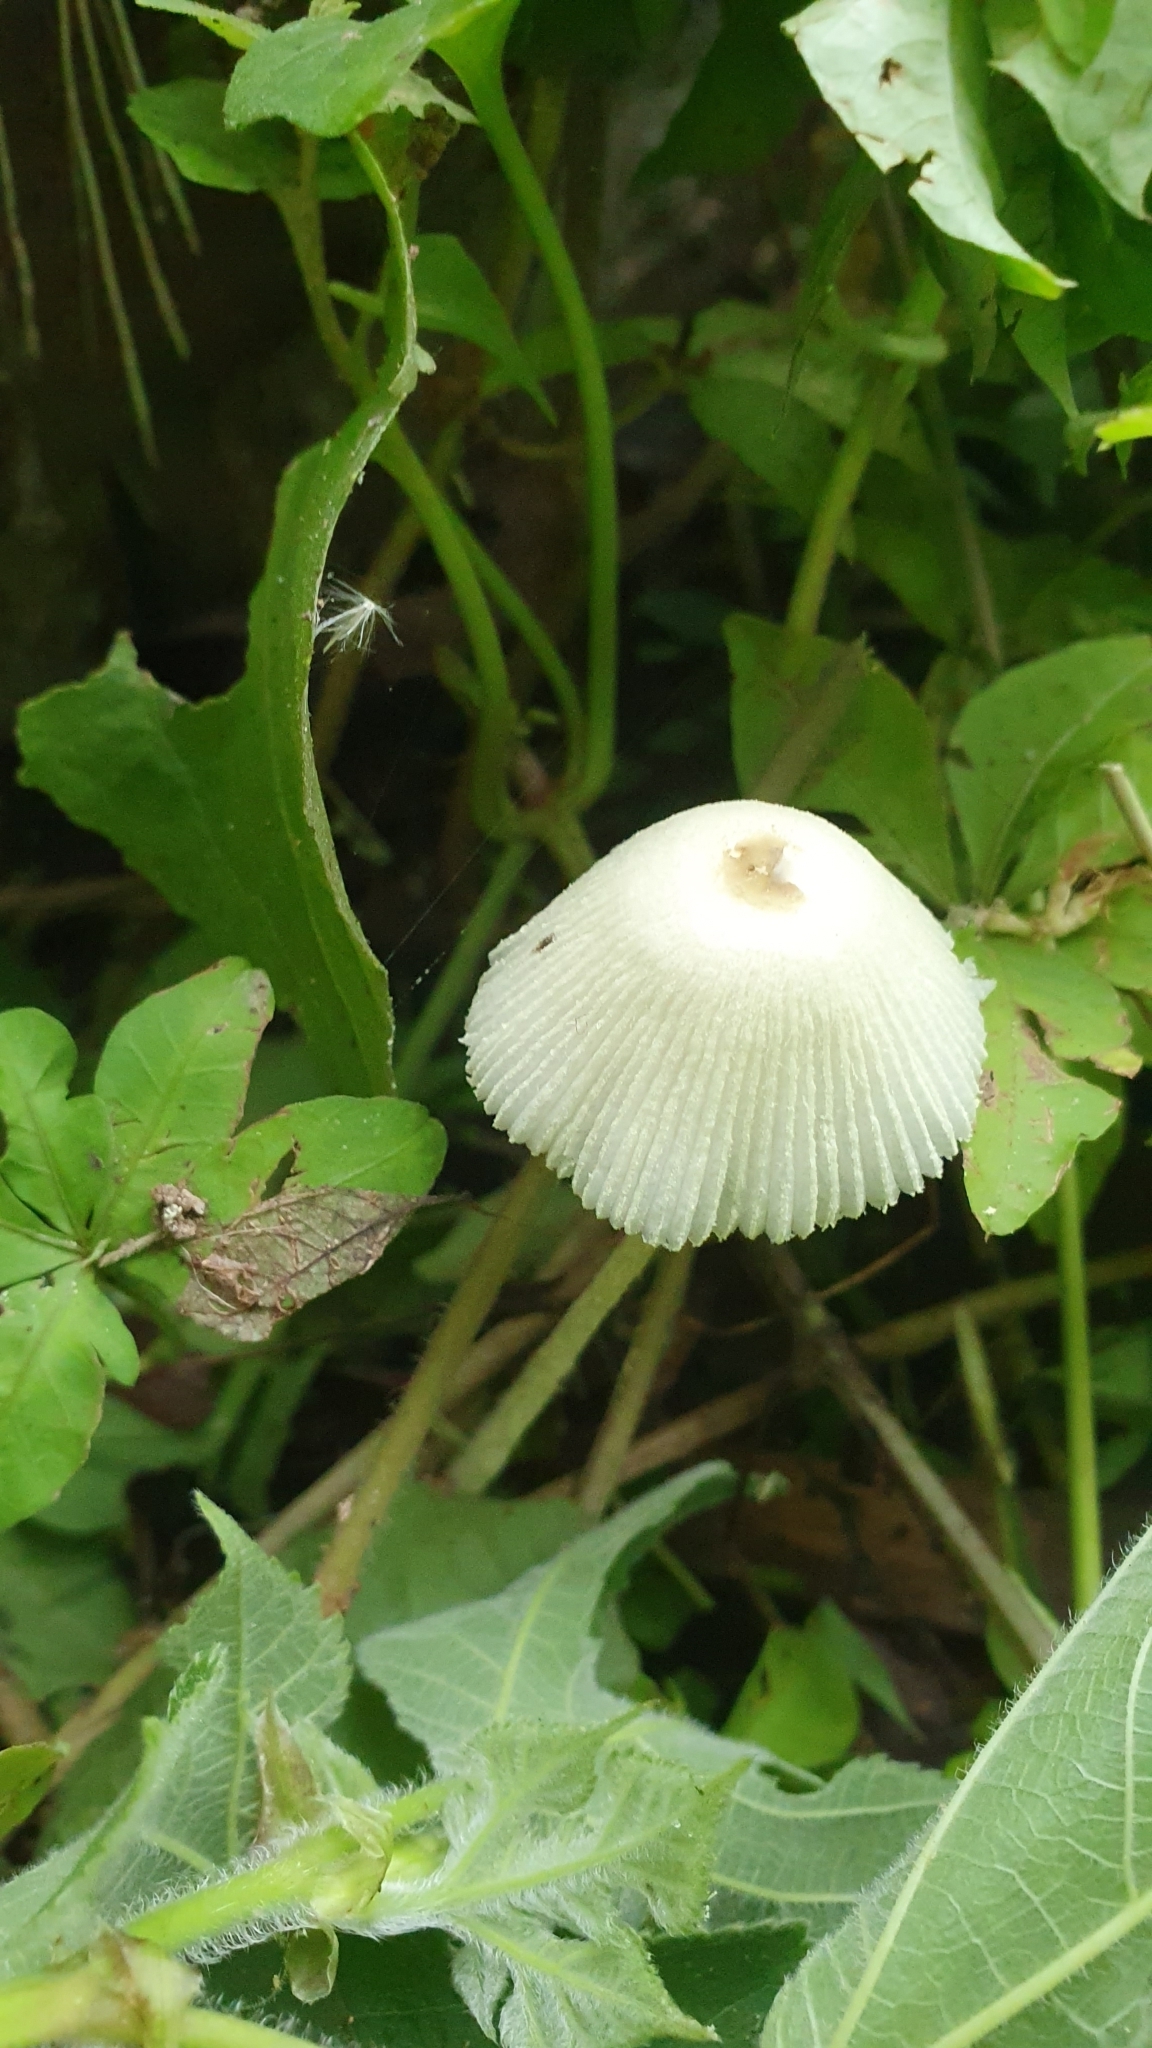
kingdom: Fungi
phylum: Basidiomycota
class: Agaricomycetes
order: Agaricales
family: Agaricaceae
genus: Leucocoprinus
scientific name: Leucocoprinus fragilissimus
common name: Fragile dapperling
